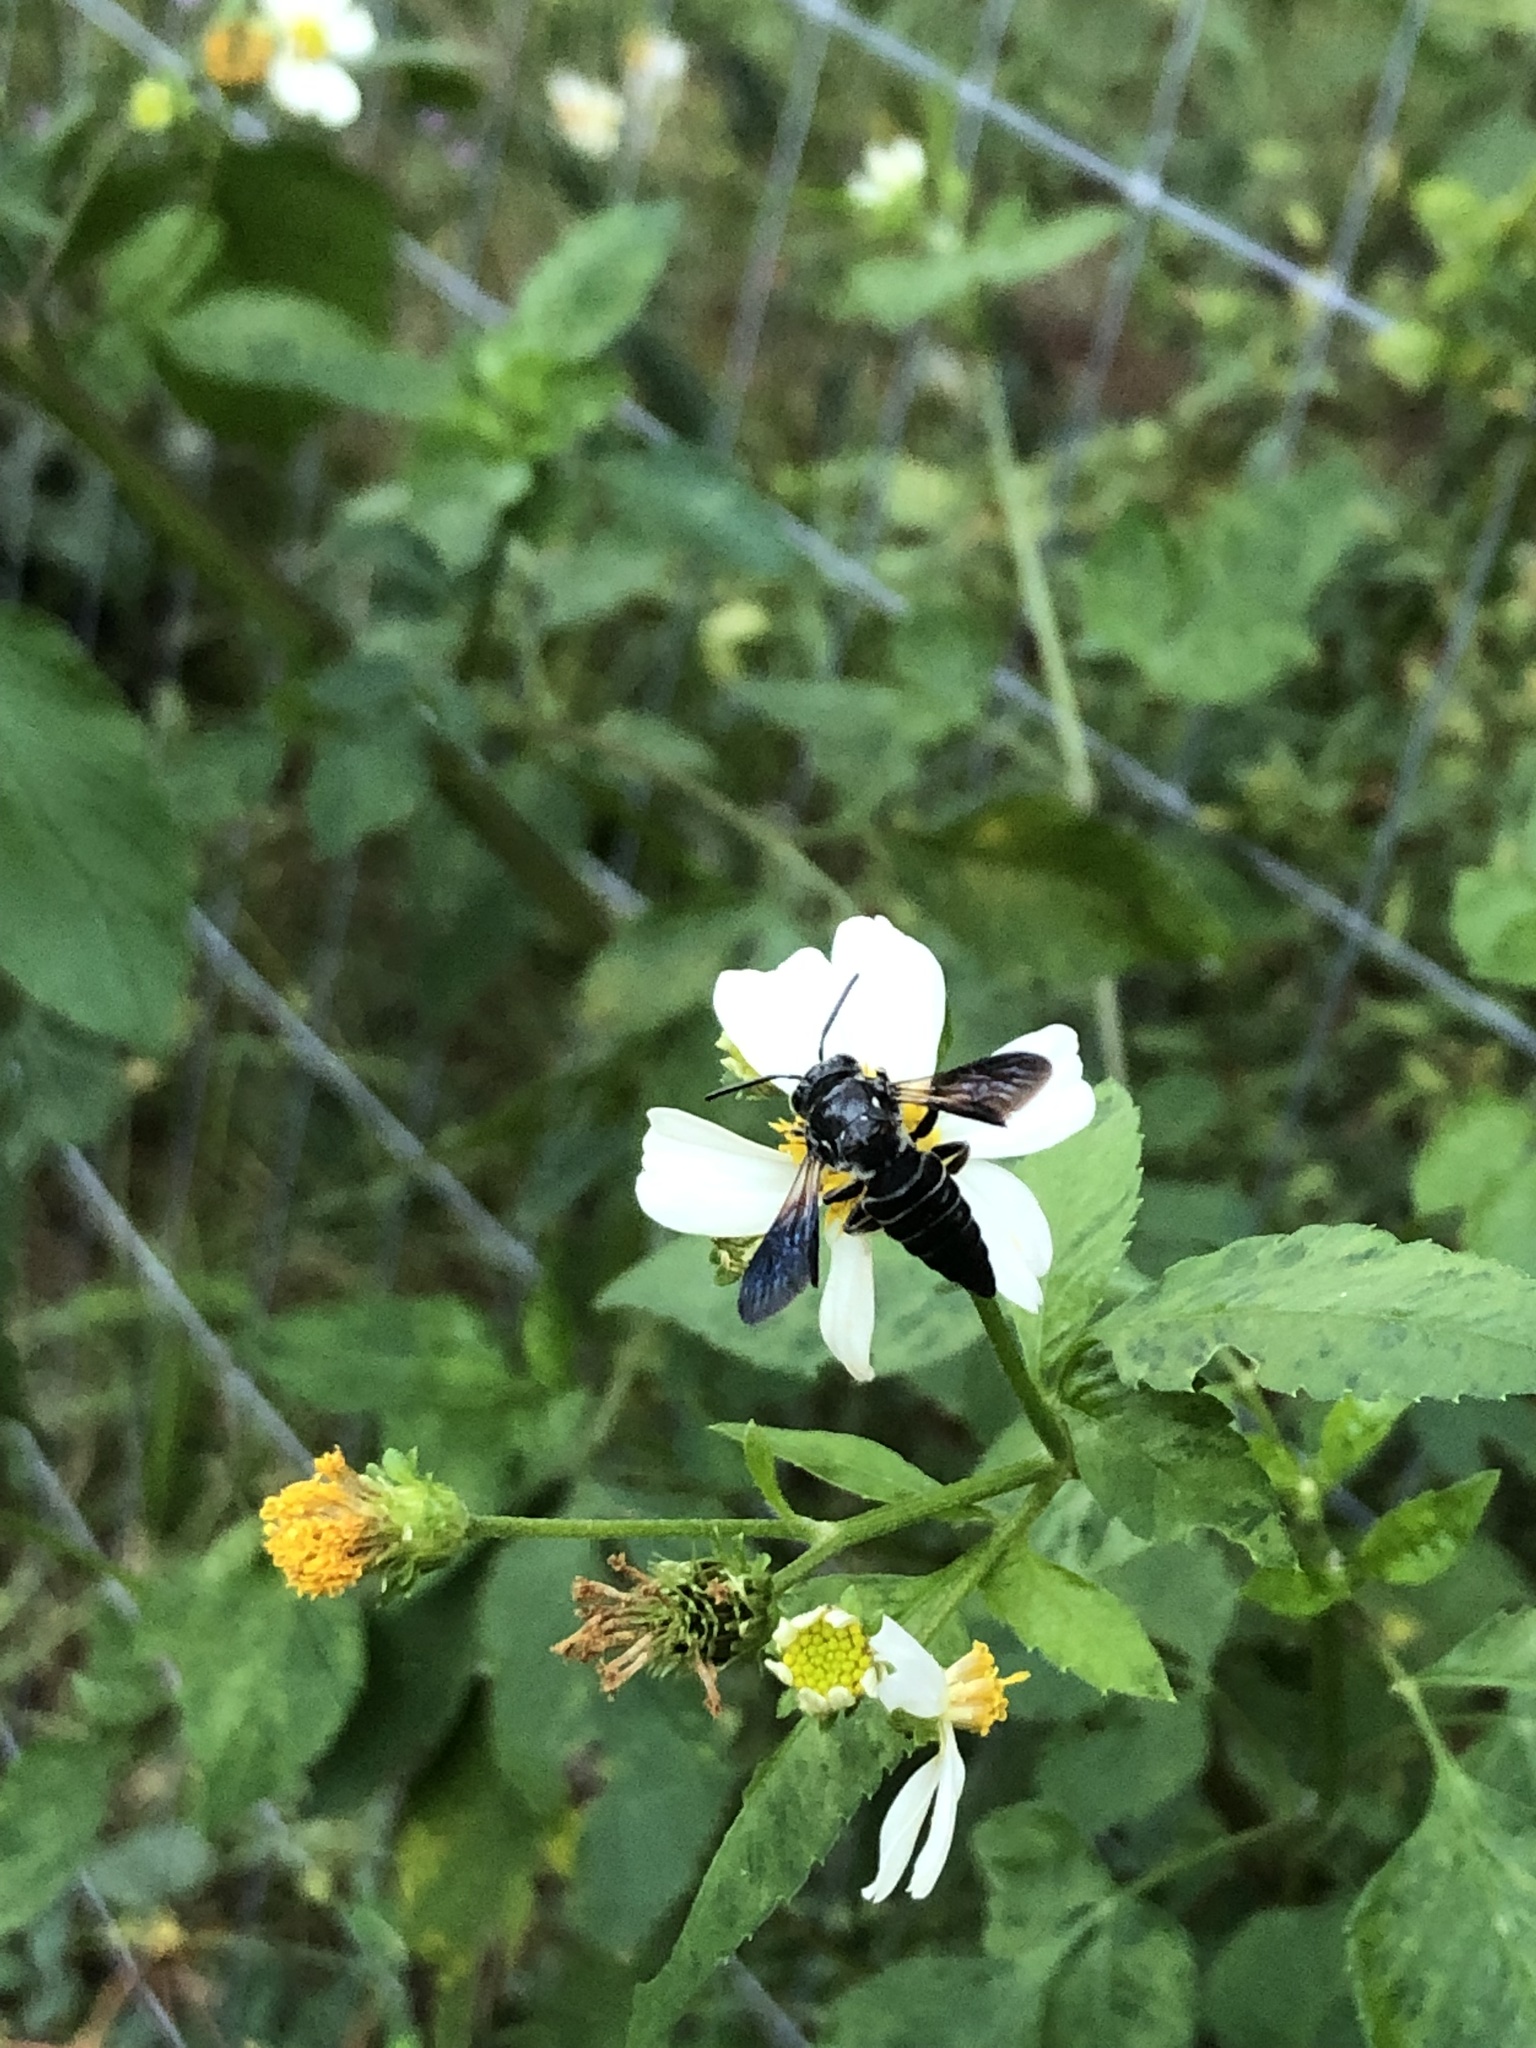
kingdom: Animalia
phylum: Arthropoda
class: Insecta
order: Hymenoptera
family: Megachilidae
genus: Coelioxys
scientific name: Coelioxys dolichos
